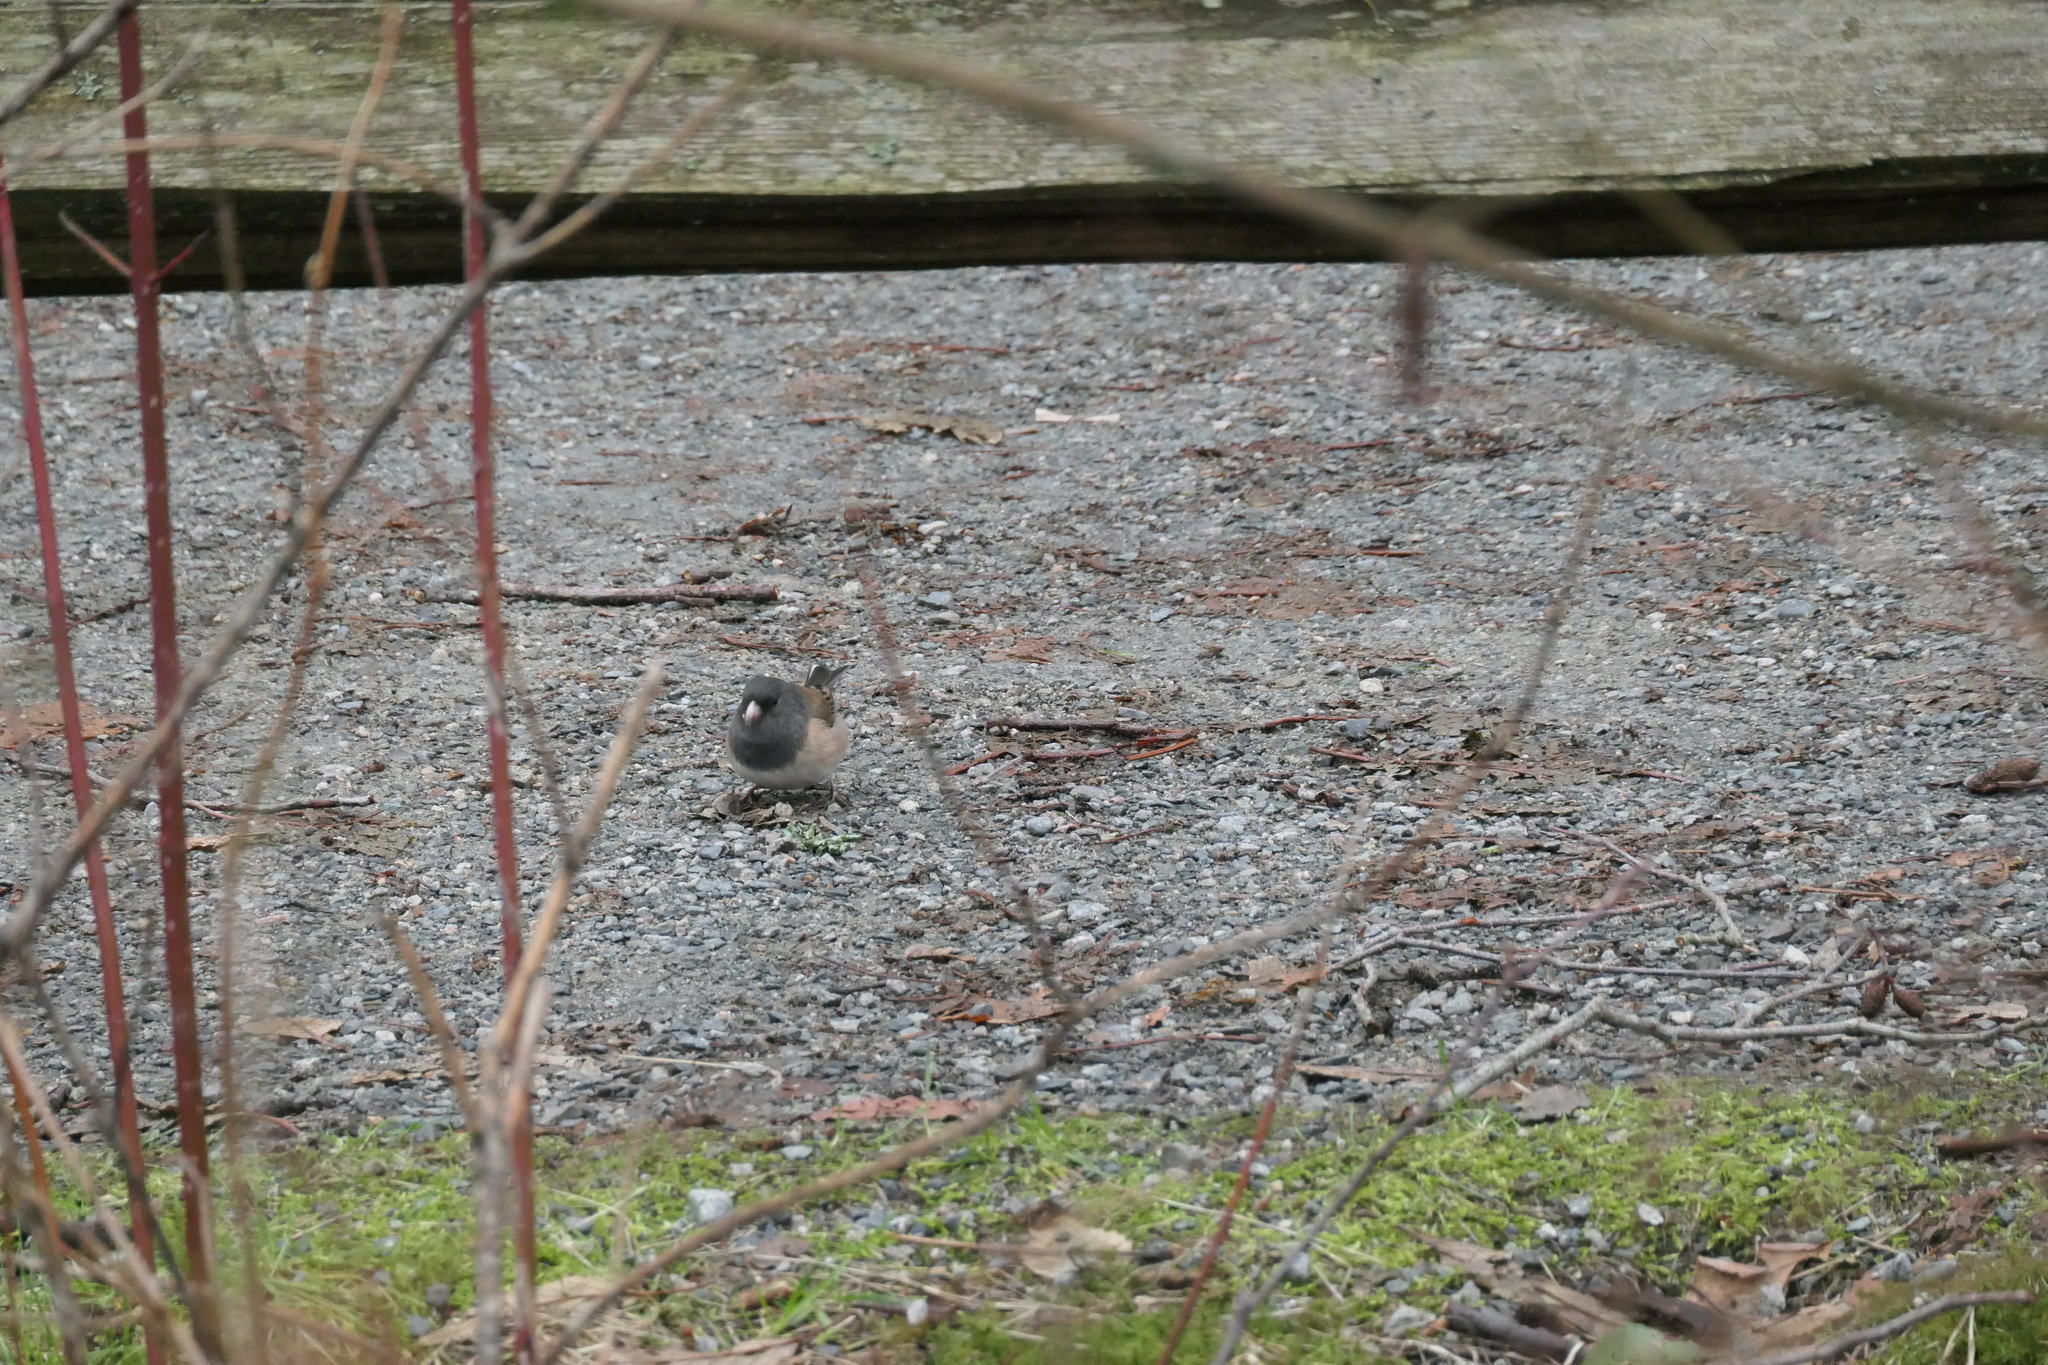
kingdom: Animalia
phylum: Chordata
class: Aves
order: Passeriformes
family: Passerellidae
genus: Junco
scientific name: Junco hyemalis
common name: Dark-eyed junco
